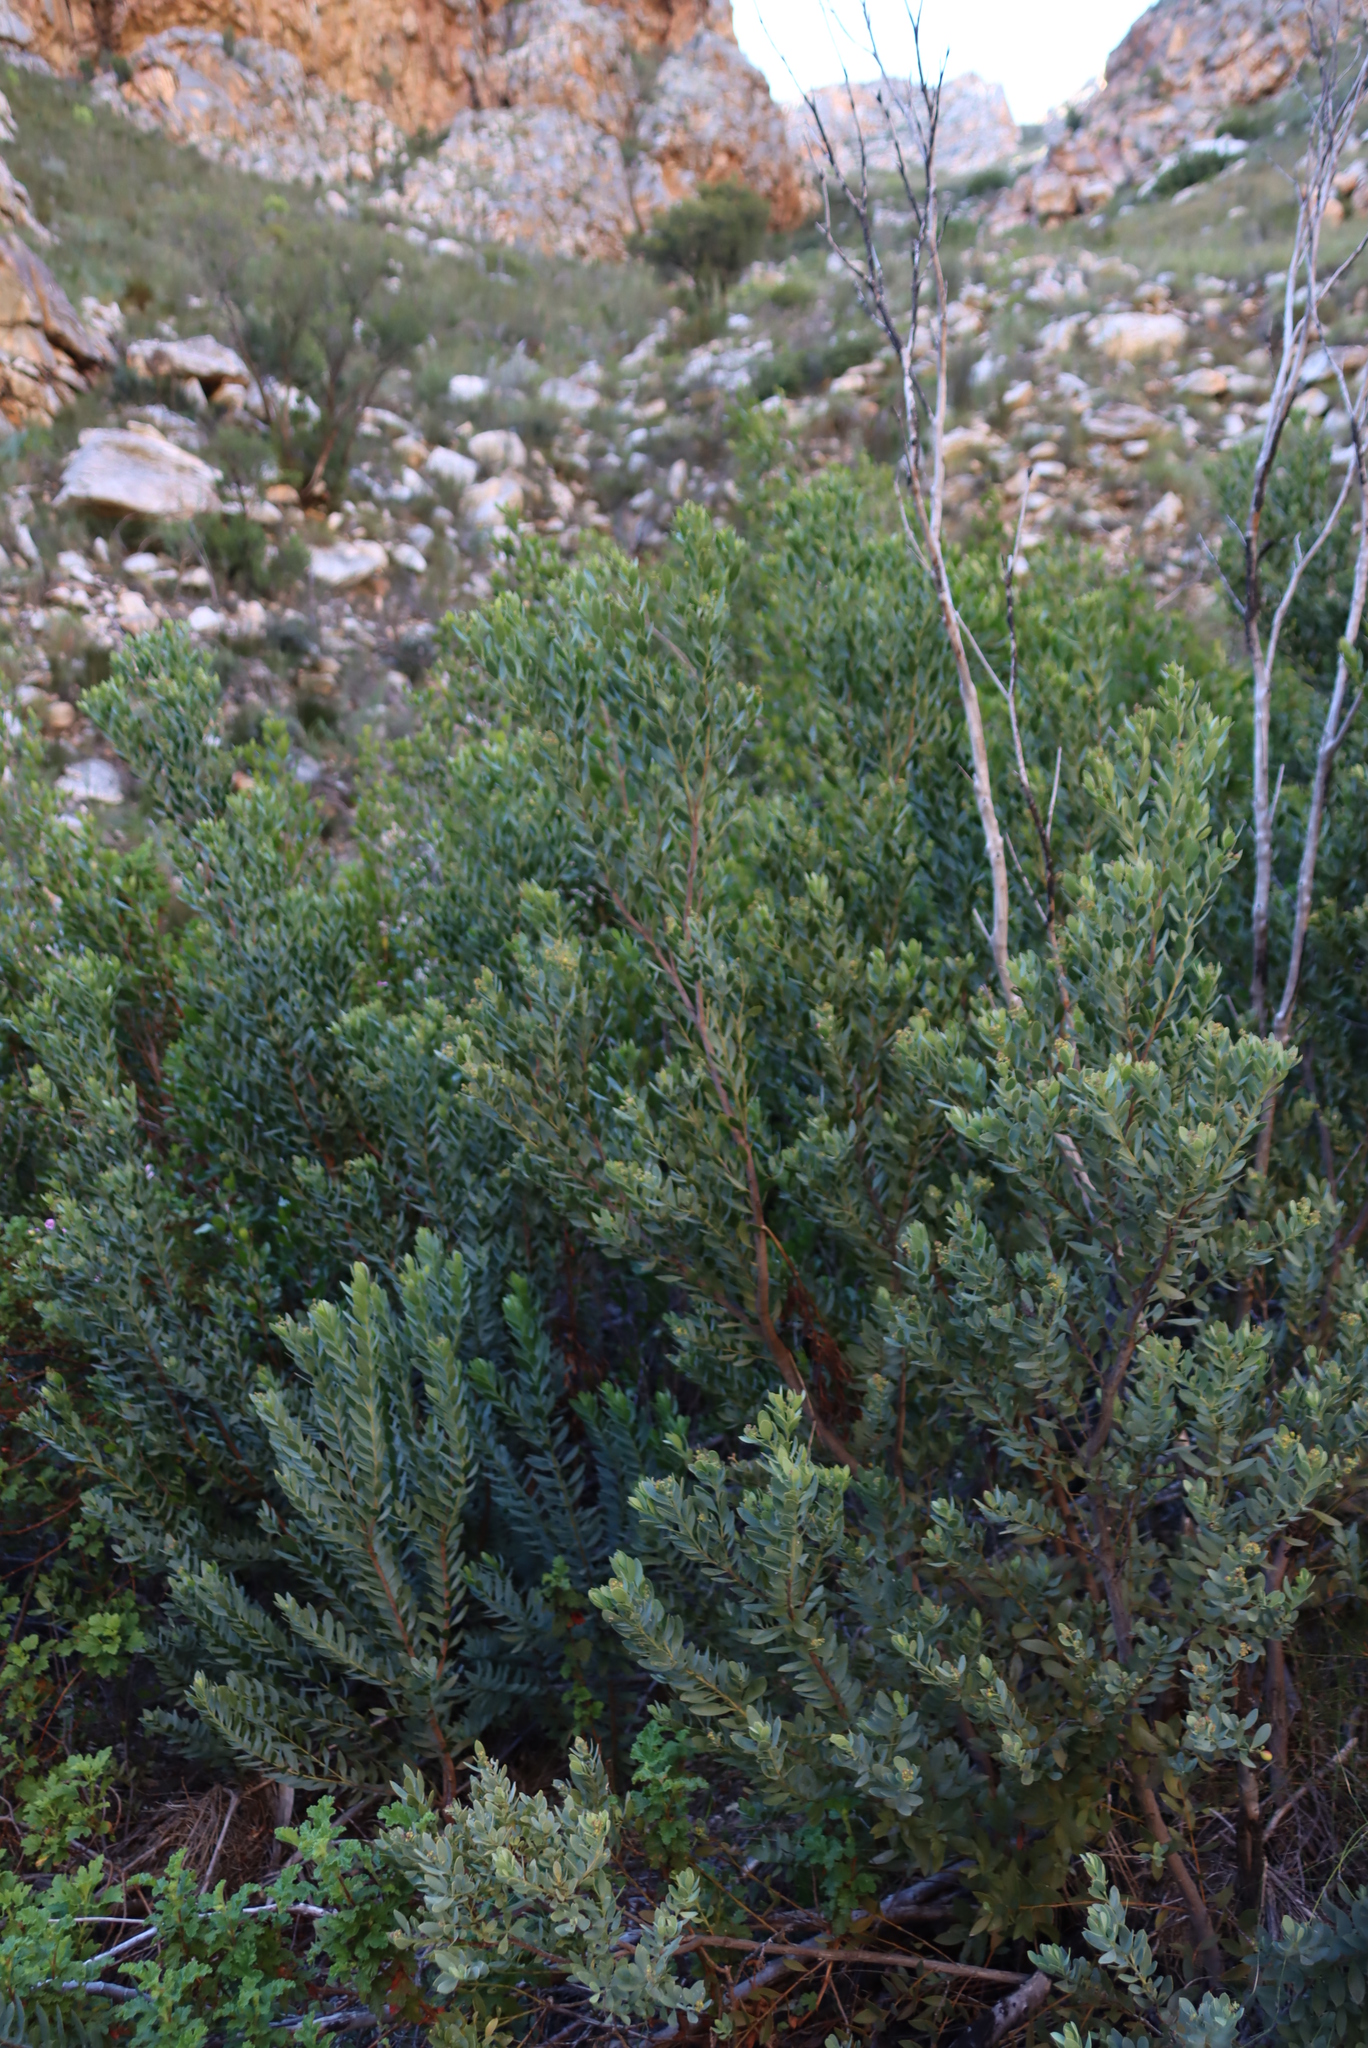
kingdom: Plantae
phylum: Tracheophyta
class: Magnoliopsida
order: Santalales
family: Santalaceae
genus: Osyris
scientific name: Osyris compressa
